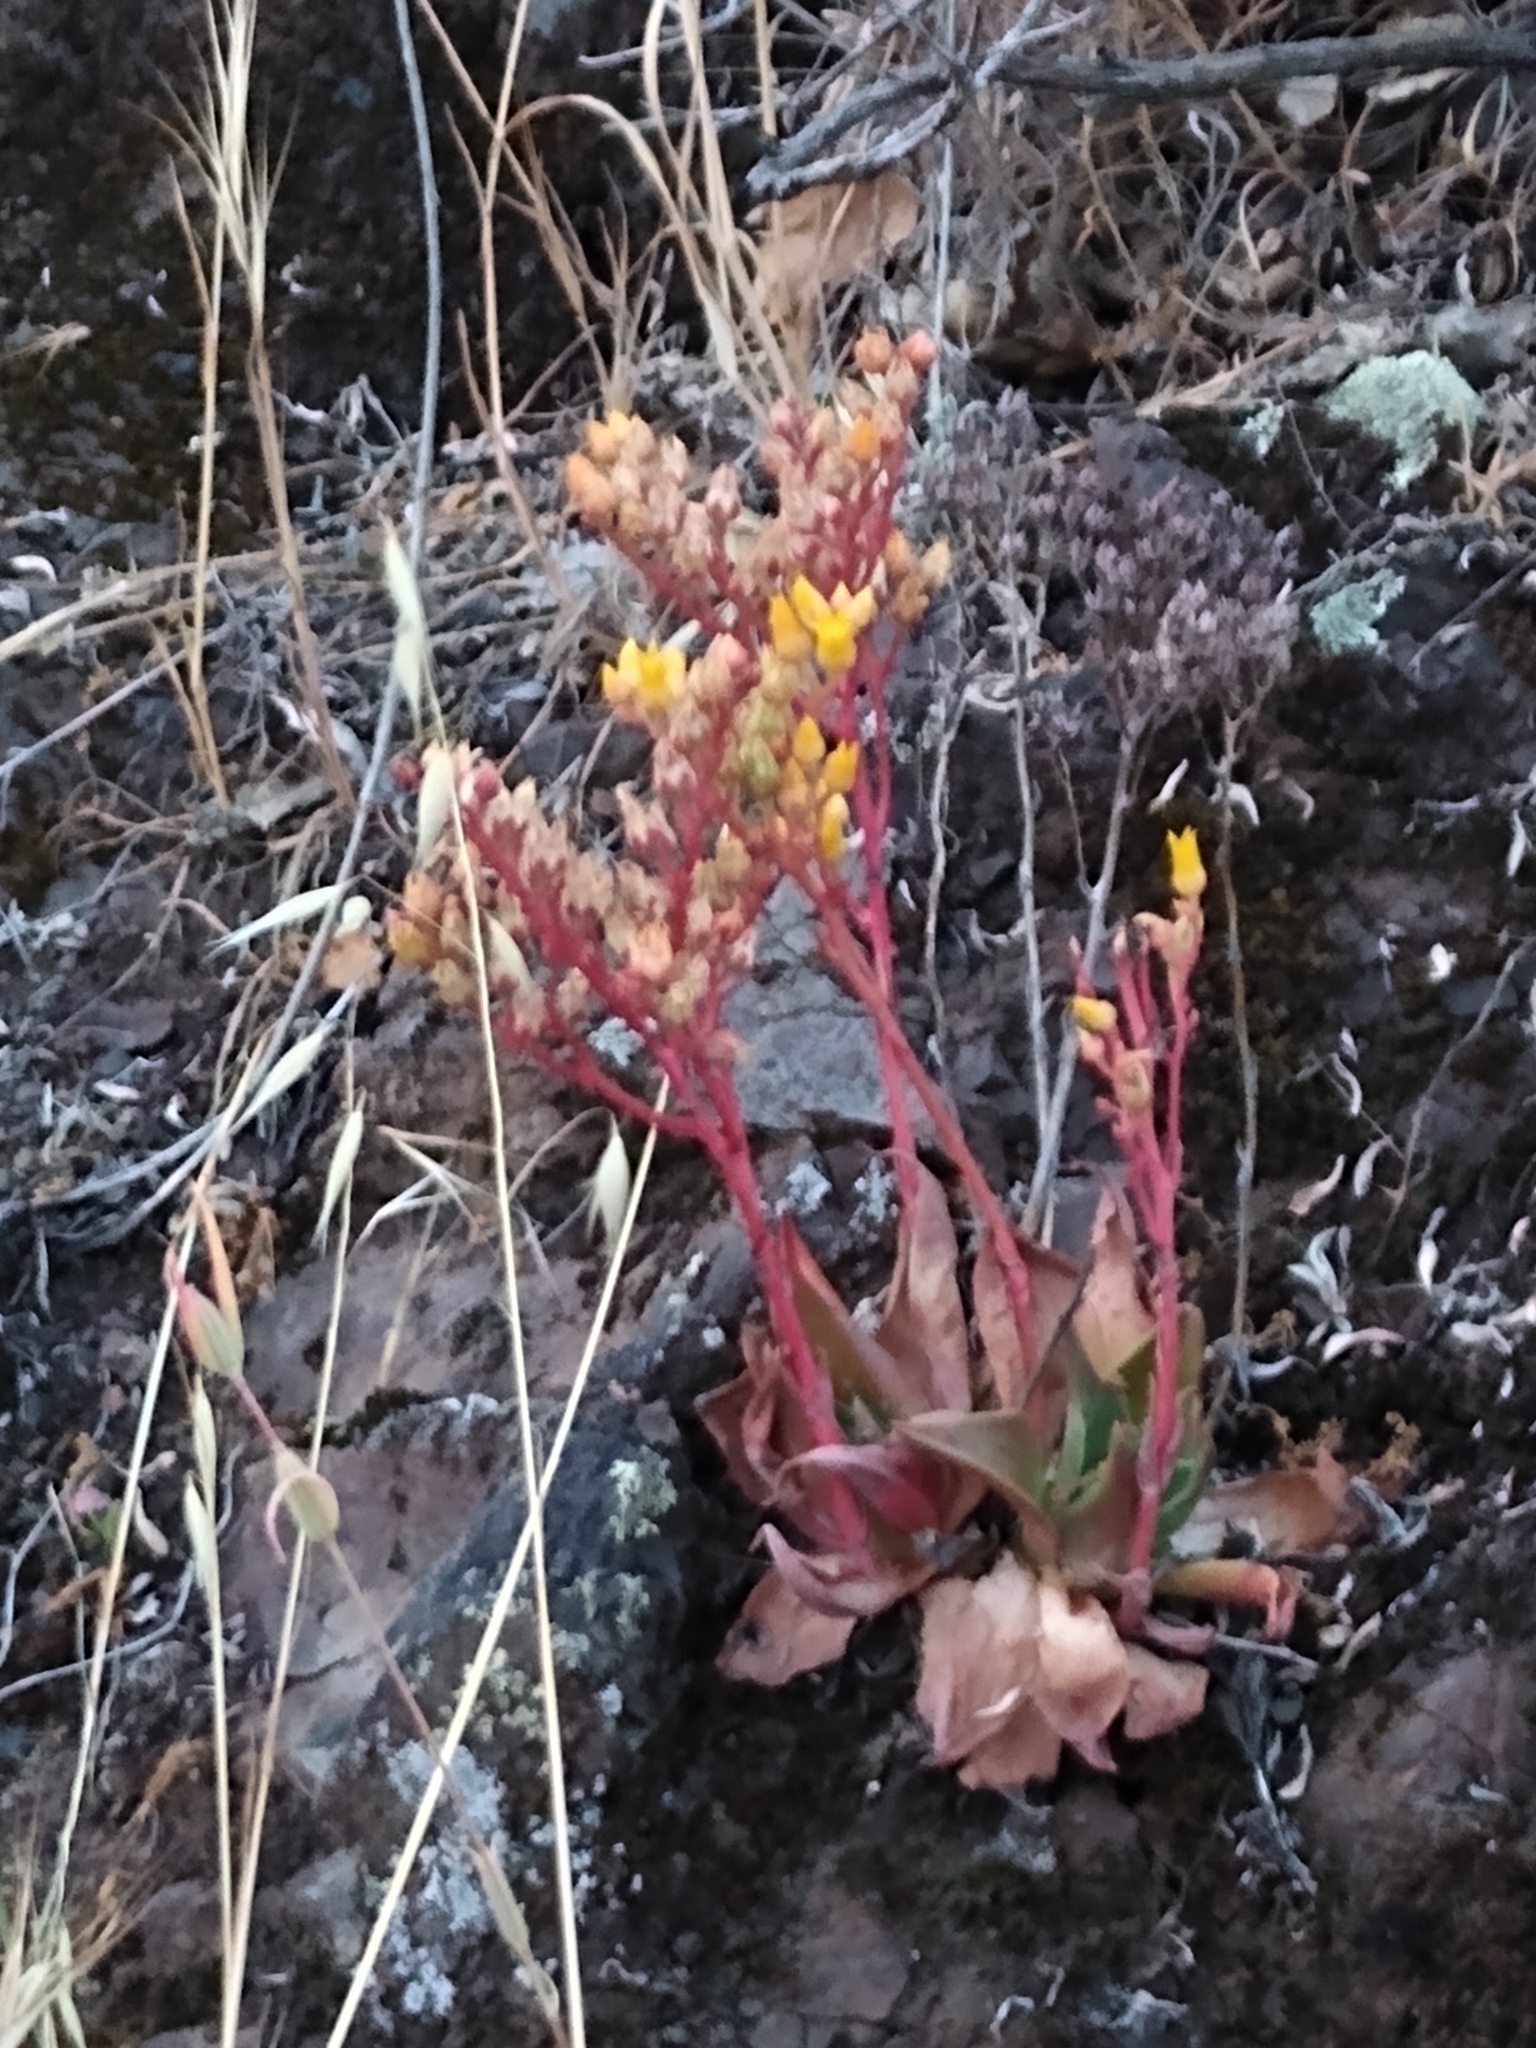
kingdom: Plantae
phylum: Tracheophyta
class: Magnoliopsida
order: Saxifragales
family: Crassulaceae
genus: Dudleya
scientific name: Dudleya cymosa
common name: Canyon dudleya
